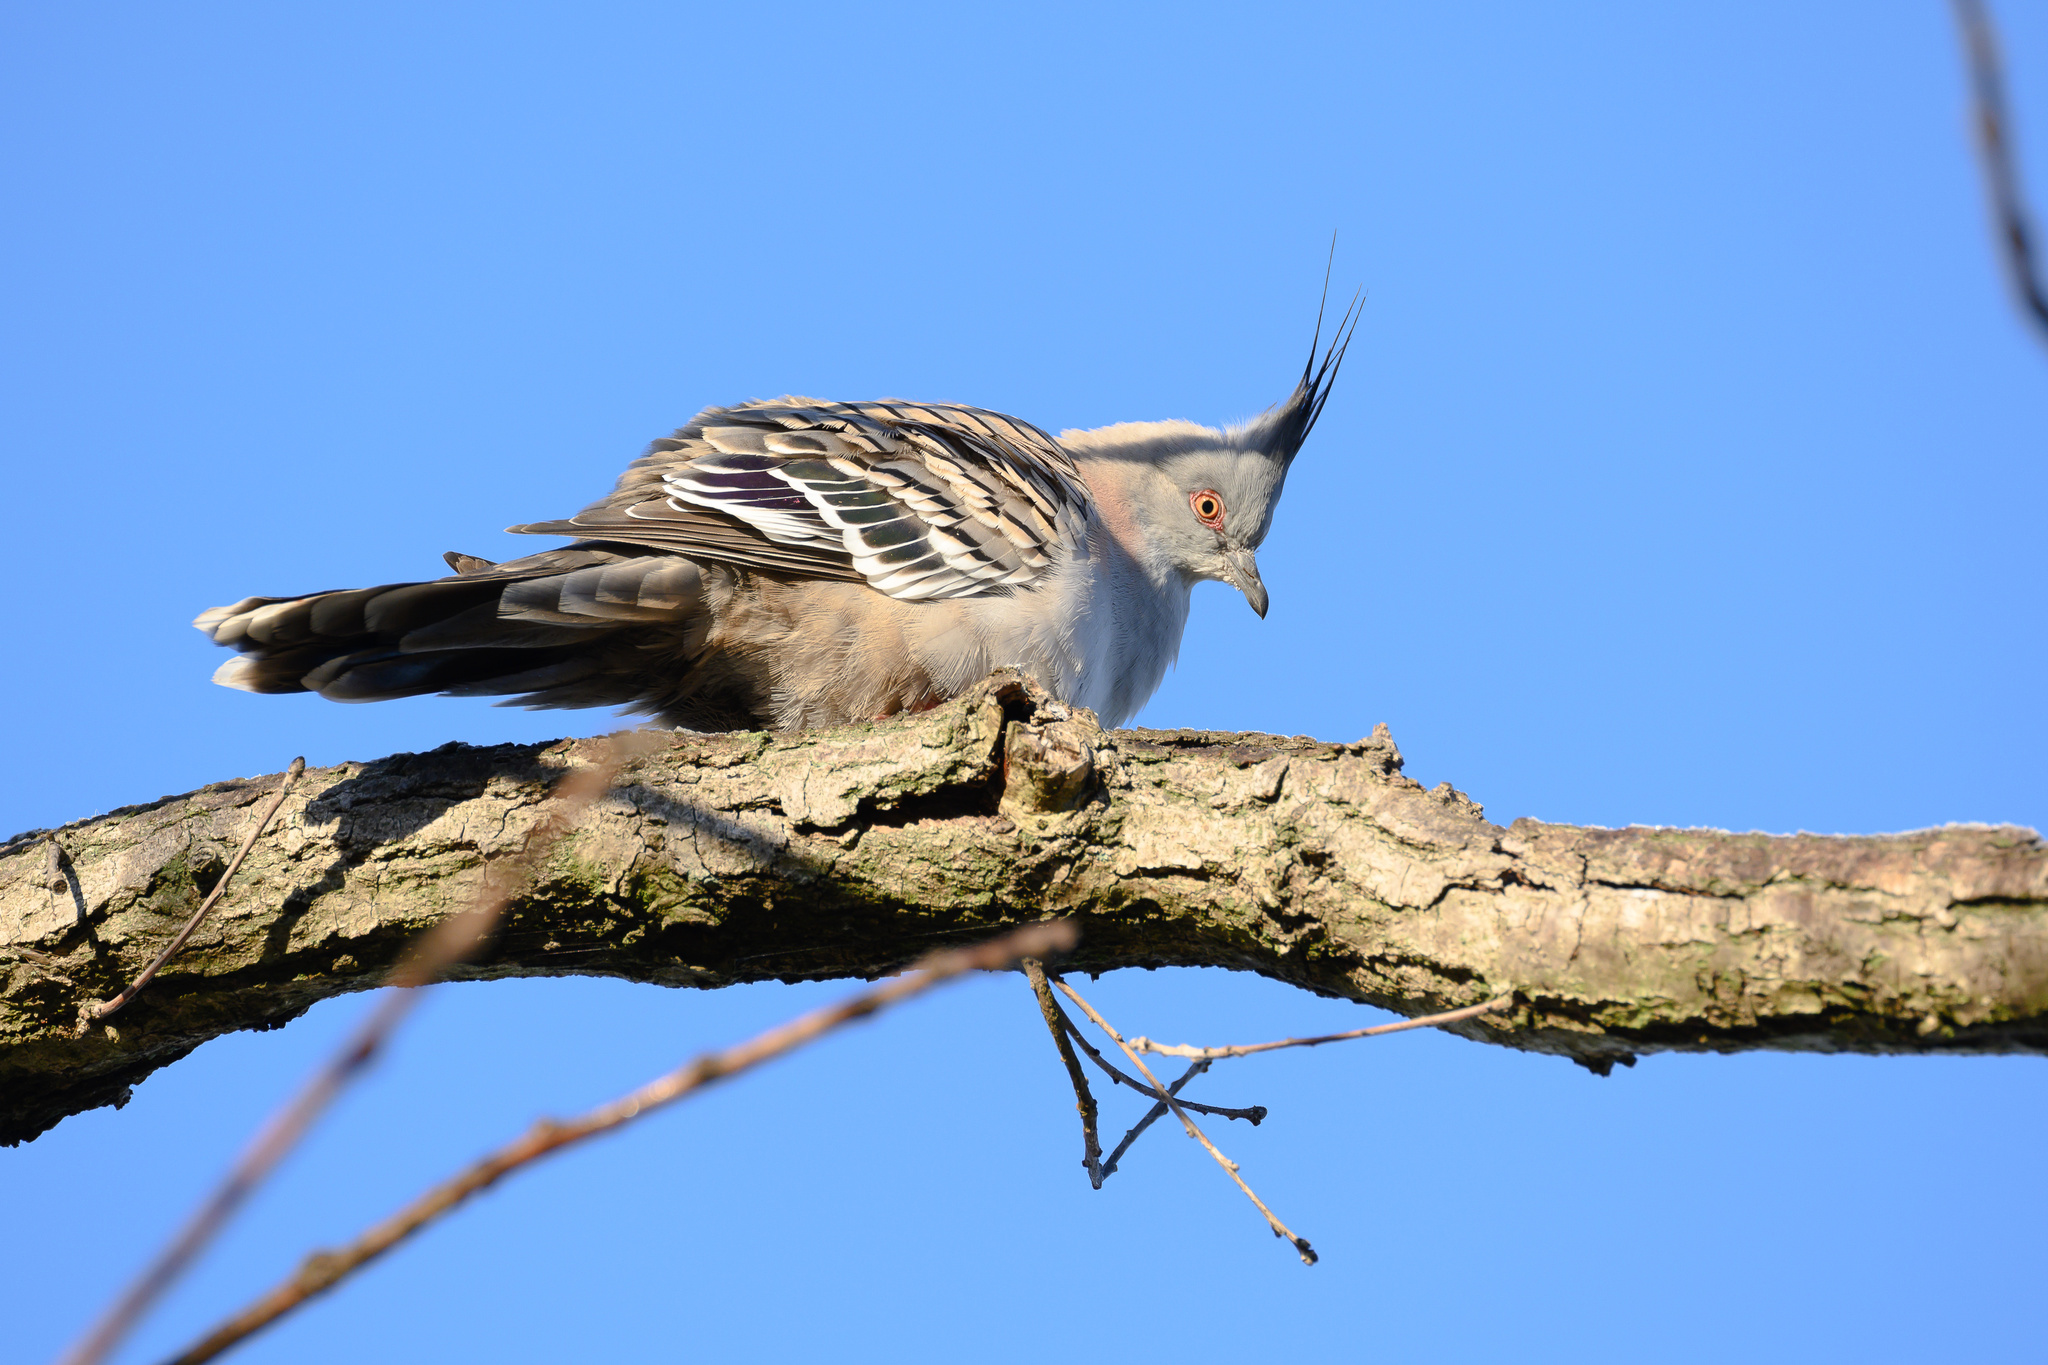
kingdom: Animalia
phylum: Chordata
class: Aves
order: Columbiformes
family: Columbidae
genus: Ocyphaps
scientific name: Ocyphaps lophotes
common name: Crested pigeon
